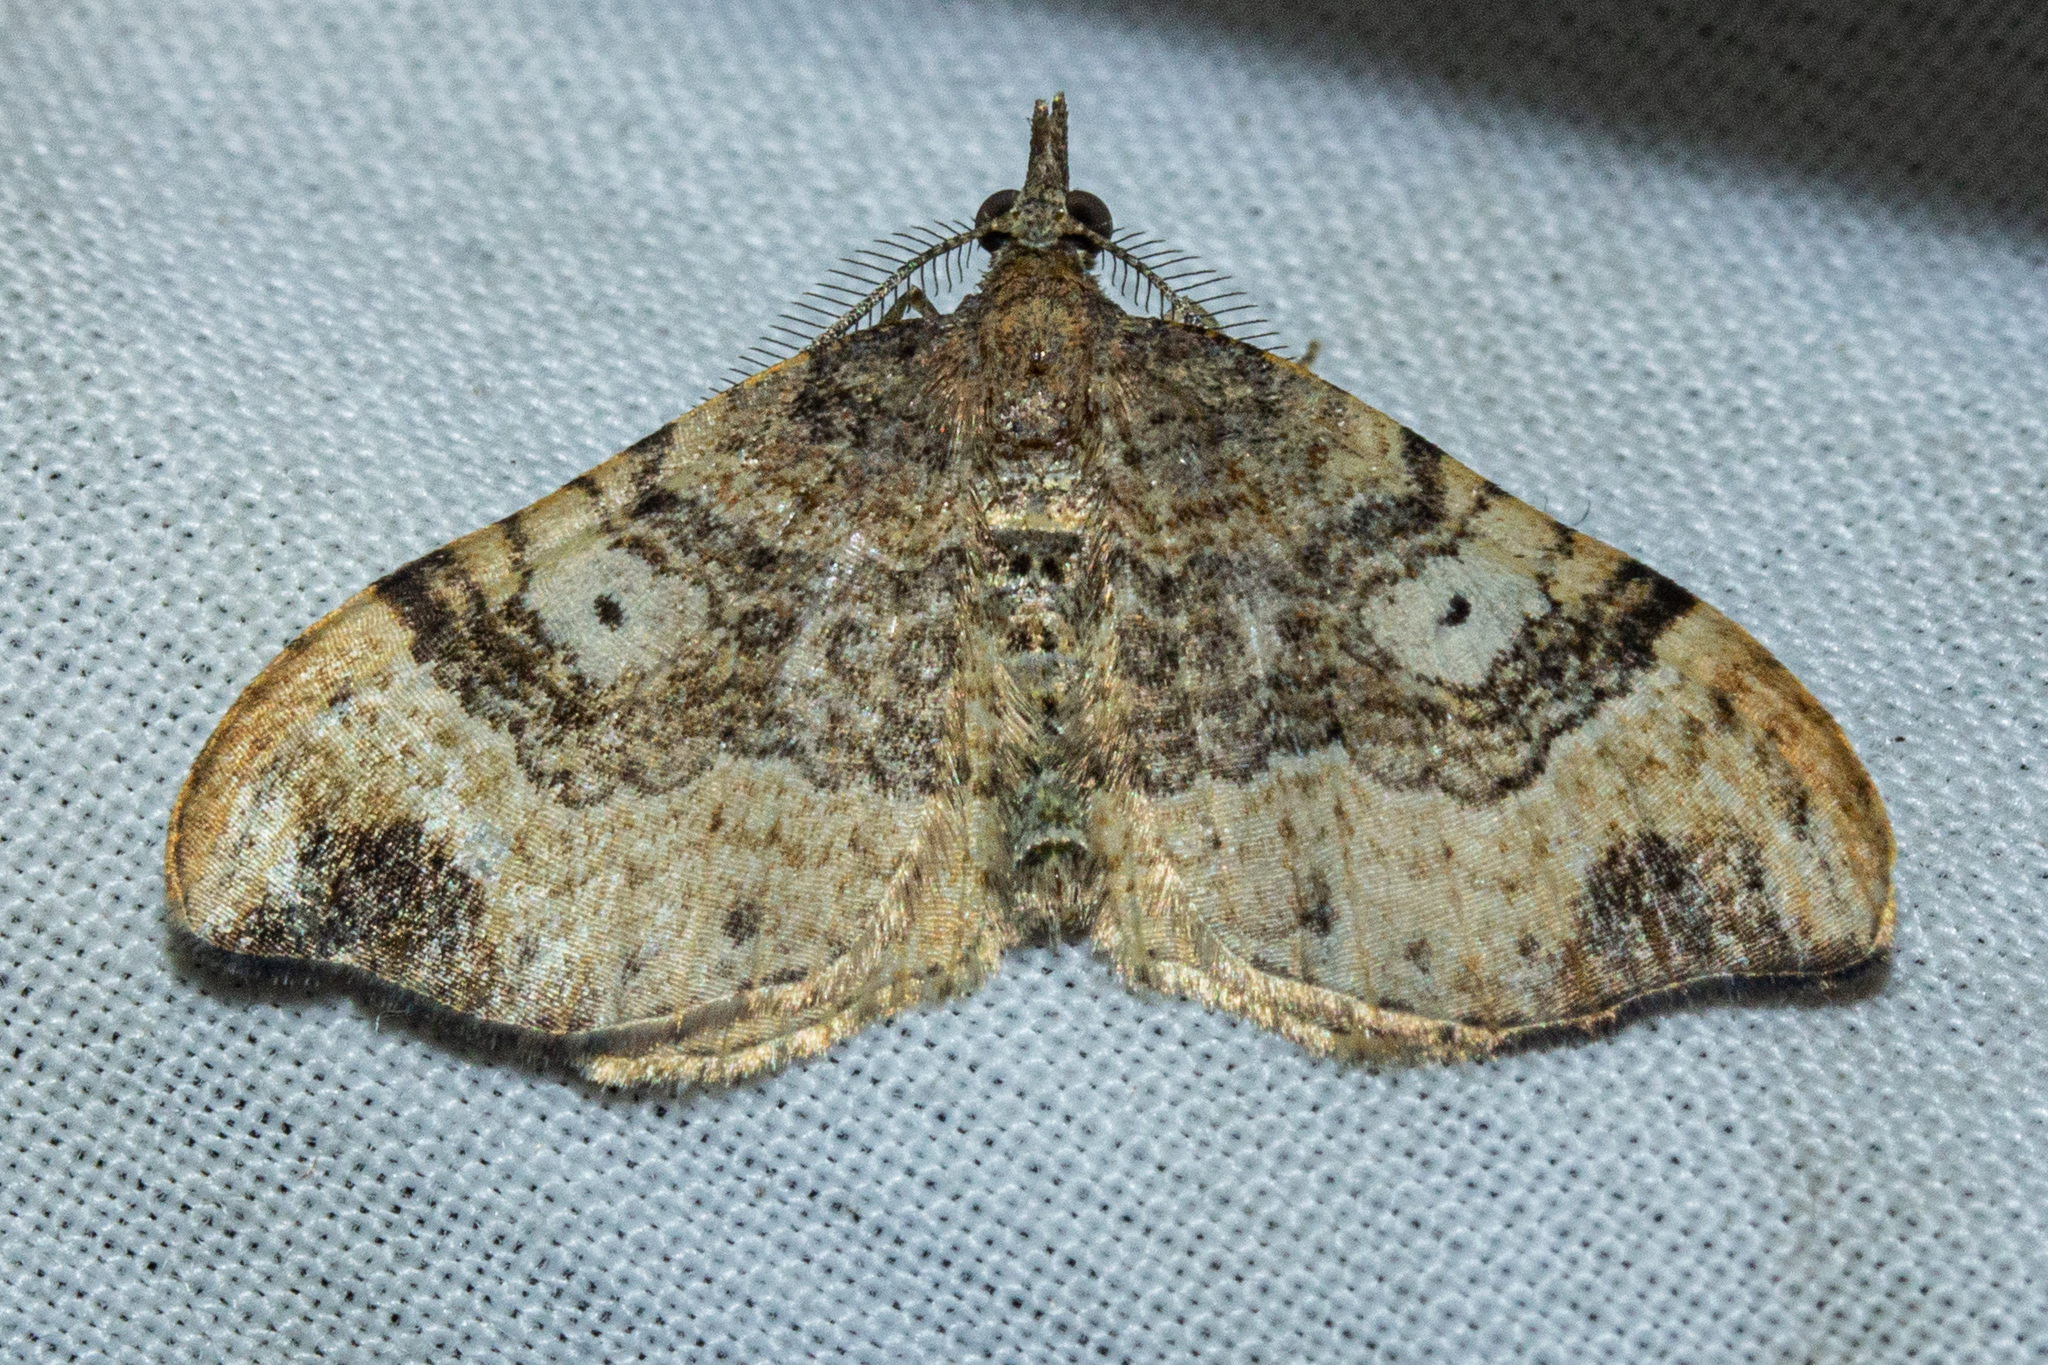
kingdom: Animalia
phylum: Arthropoda
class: Insecta
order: Lepidoptera
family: Geometridae
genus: Homodotis
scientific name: Homodotis megaspilata
